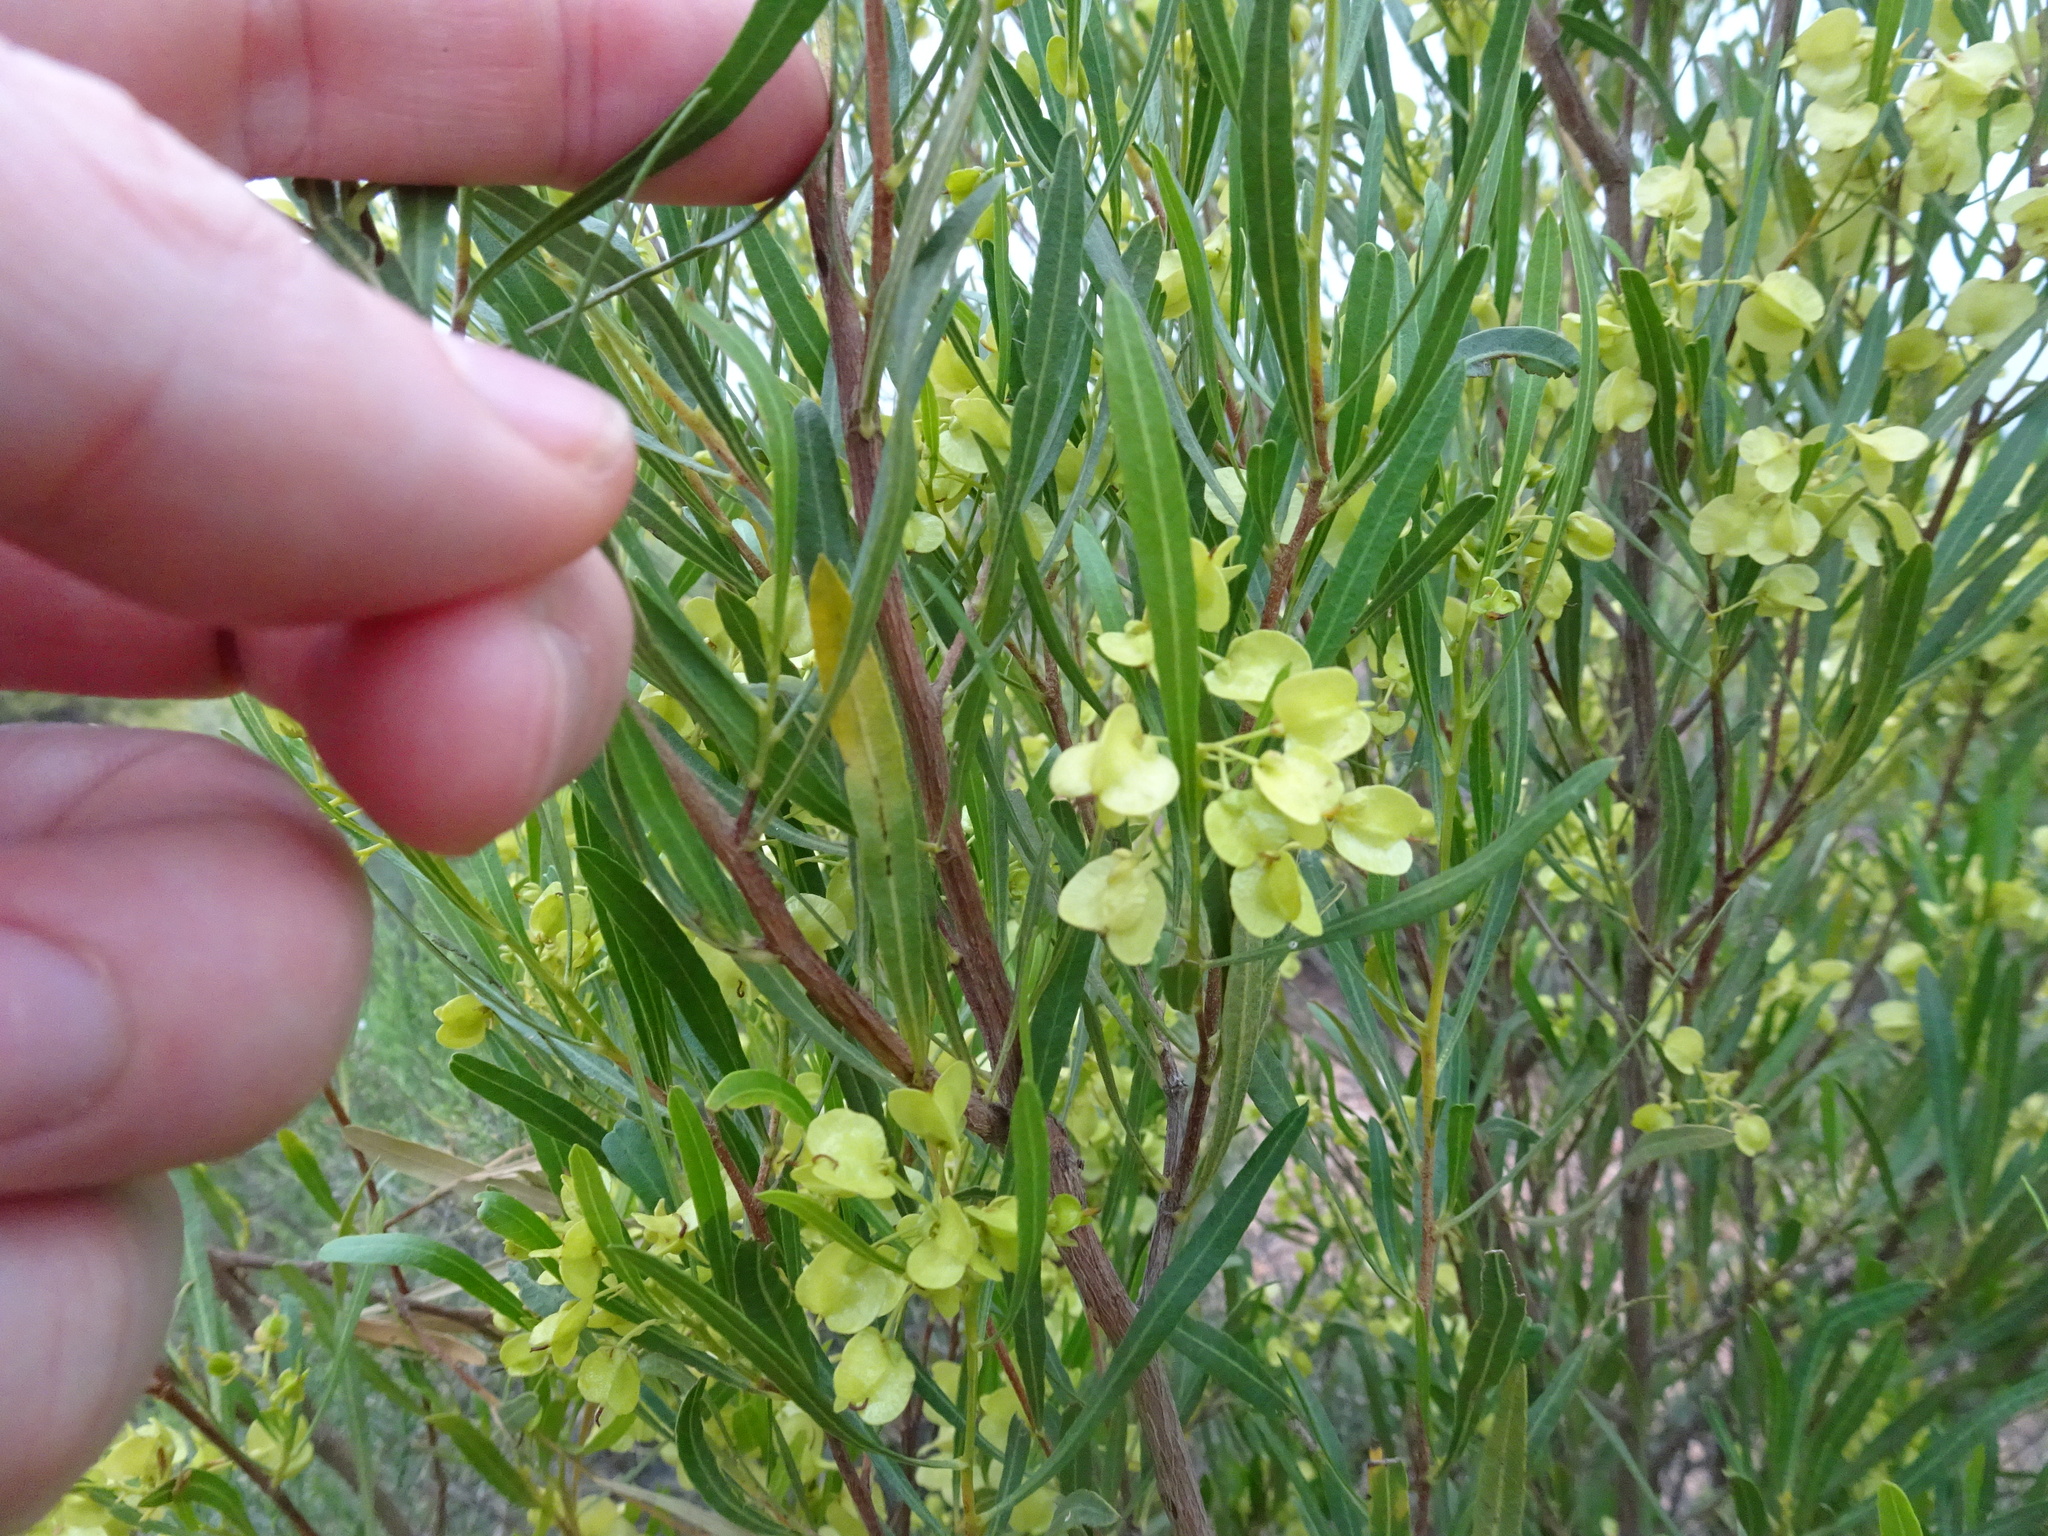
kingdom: Plantae
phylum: Tracheophyta
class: Magnoliopsida
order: Sapindales
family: Sapindaceae
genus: Dodonaea
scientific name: Dodonaea viscosa
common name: Hopbush
